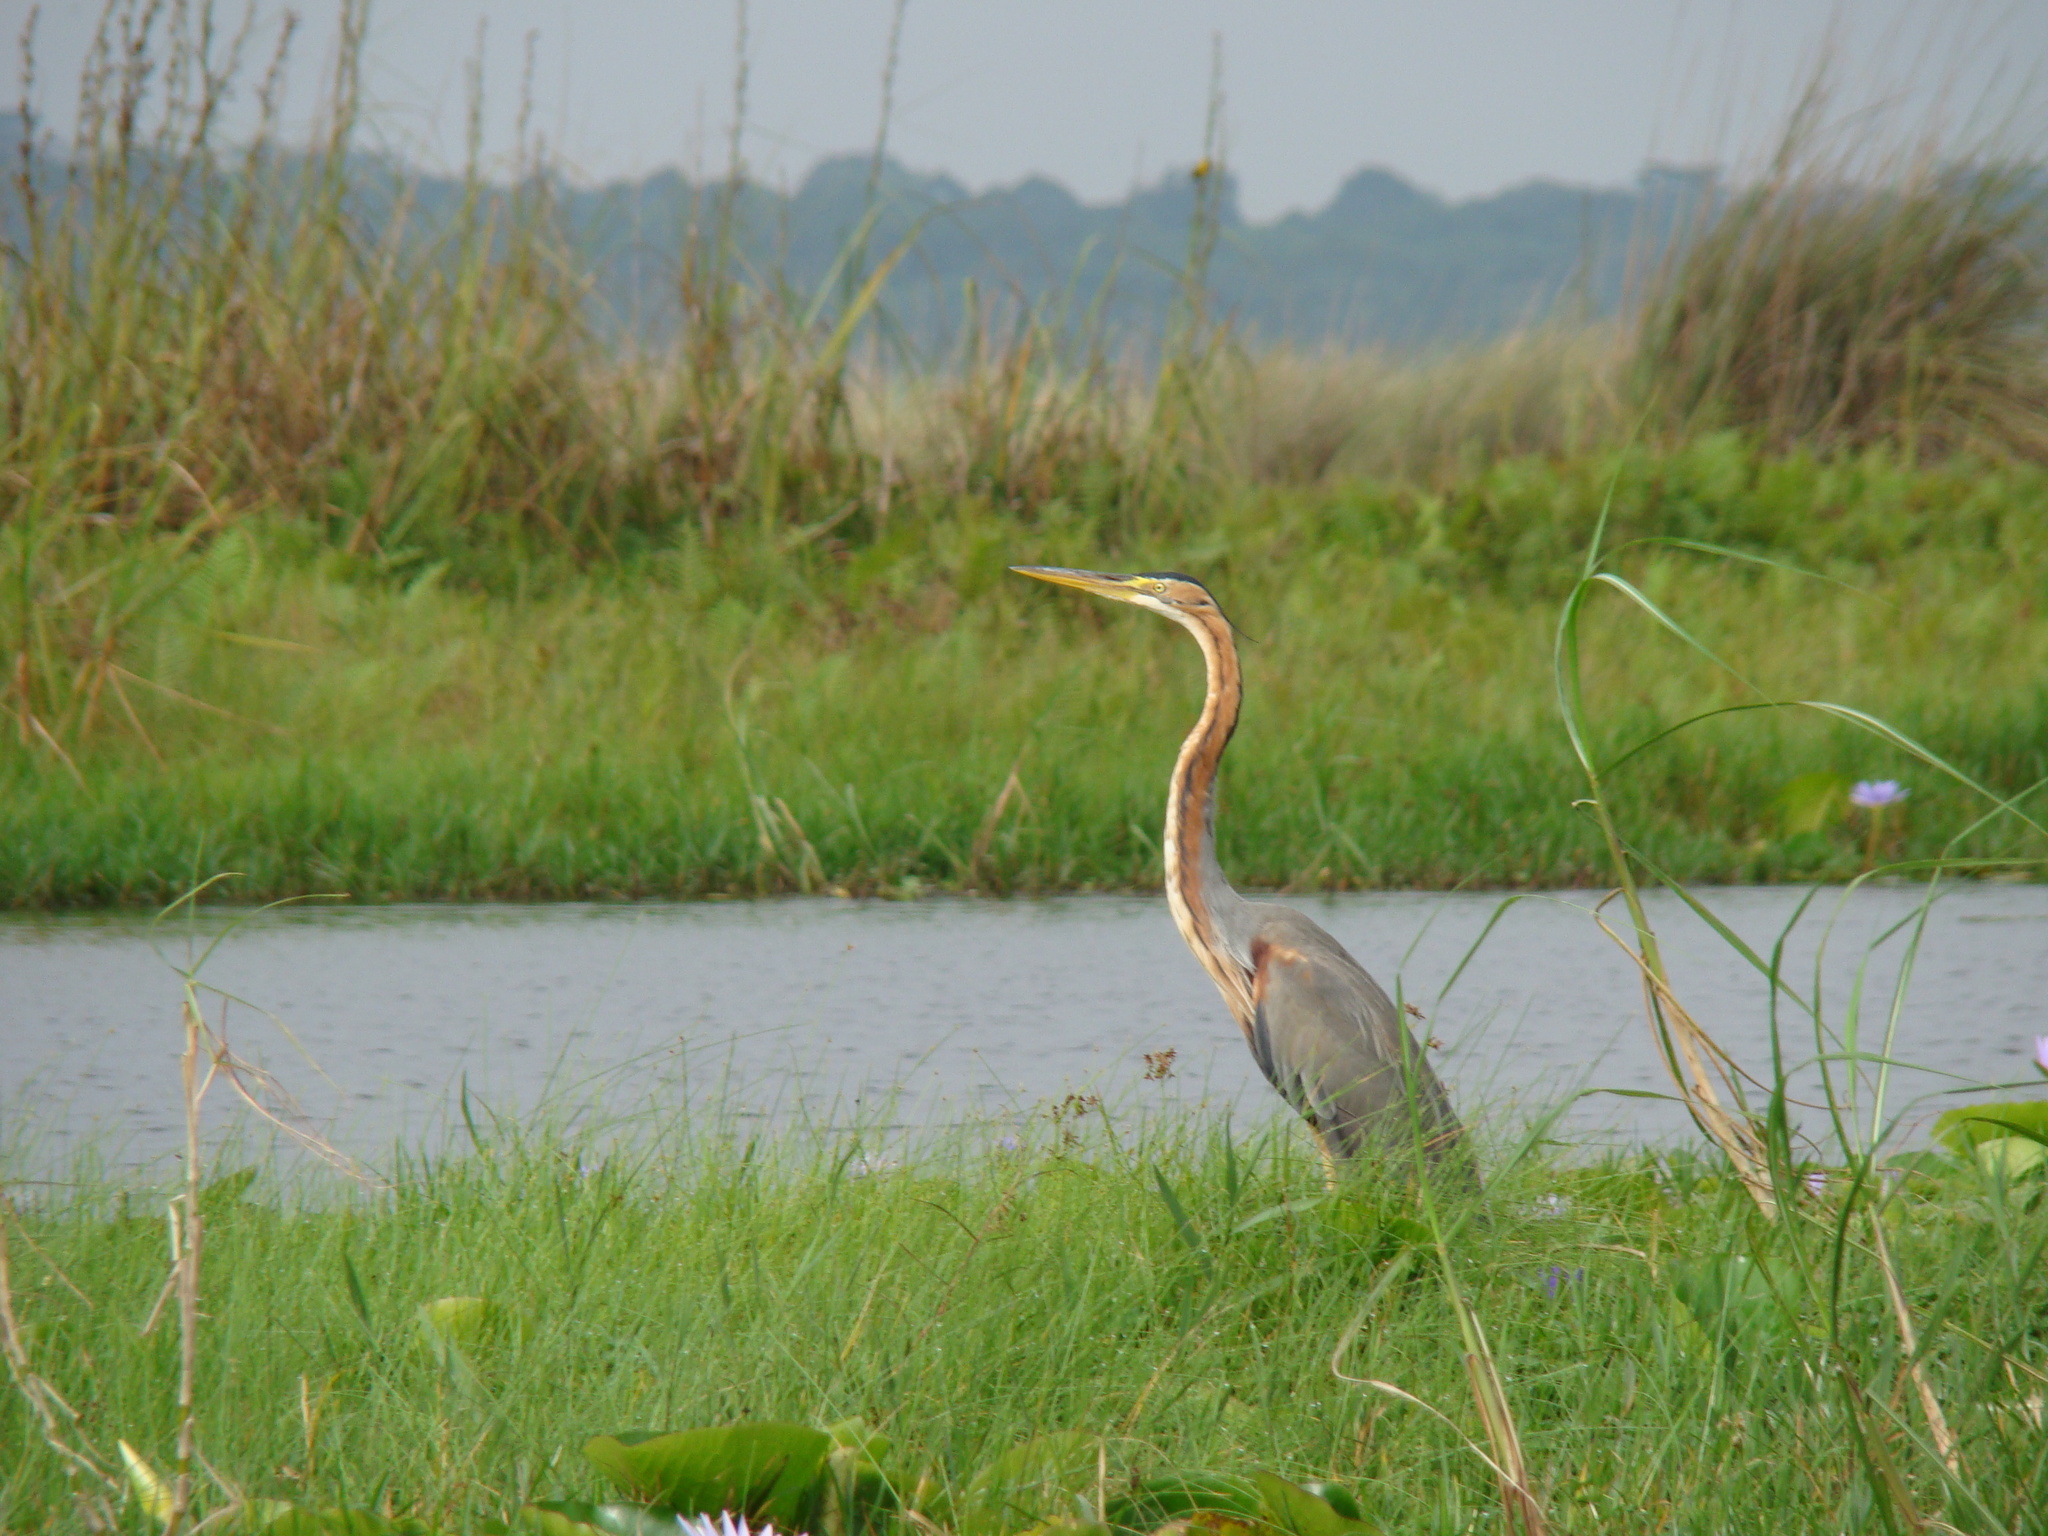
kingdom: Animalia
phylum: Chordata
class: Aves
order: Pelecaniformes
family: Ardeidae
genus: Ardea
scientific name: Ardea purpurea
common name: Purple heron
